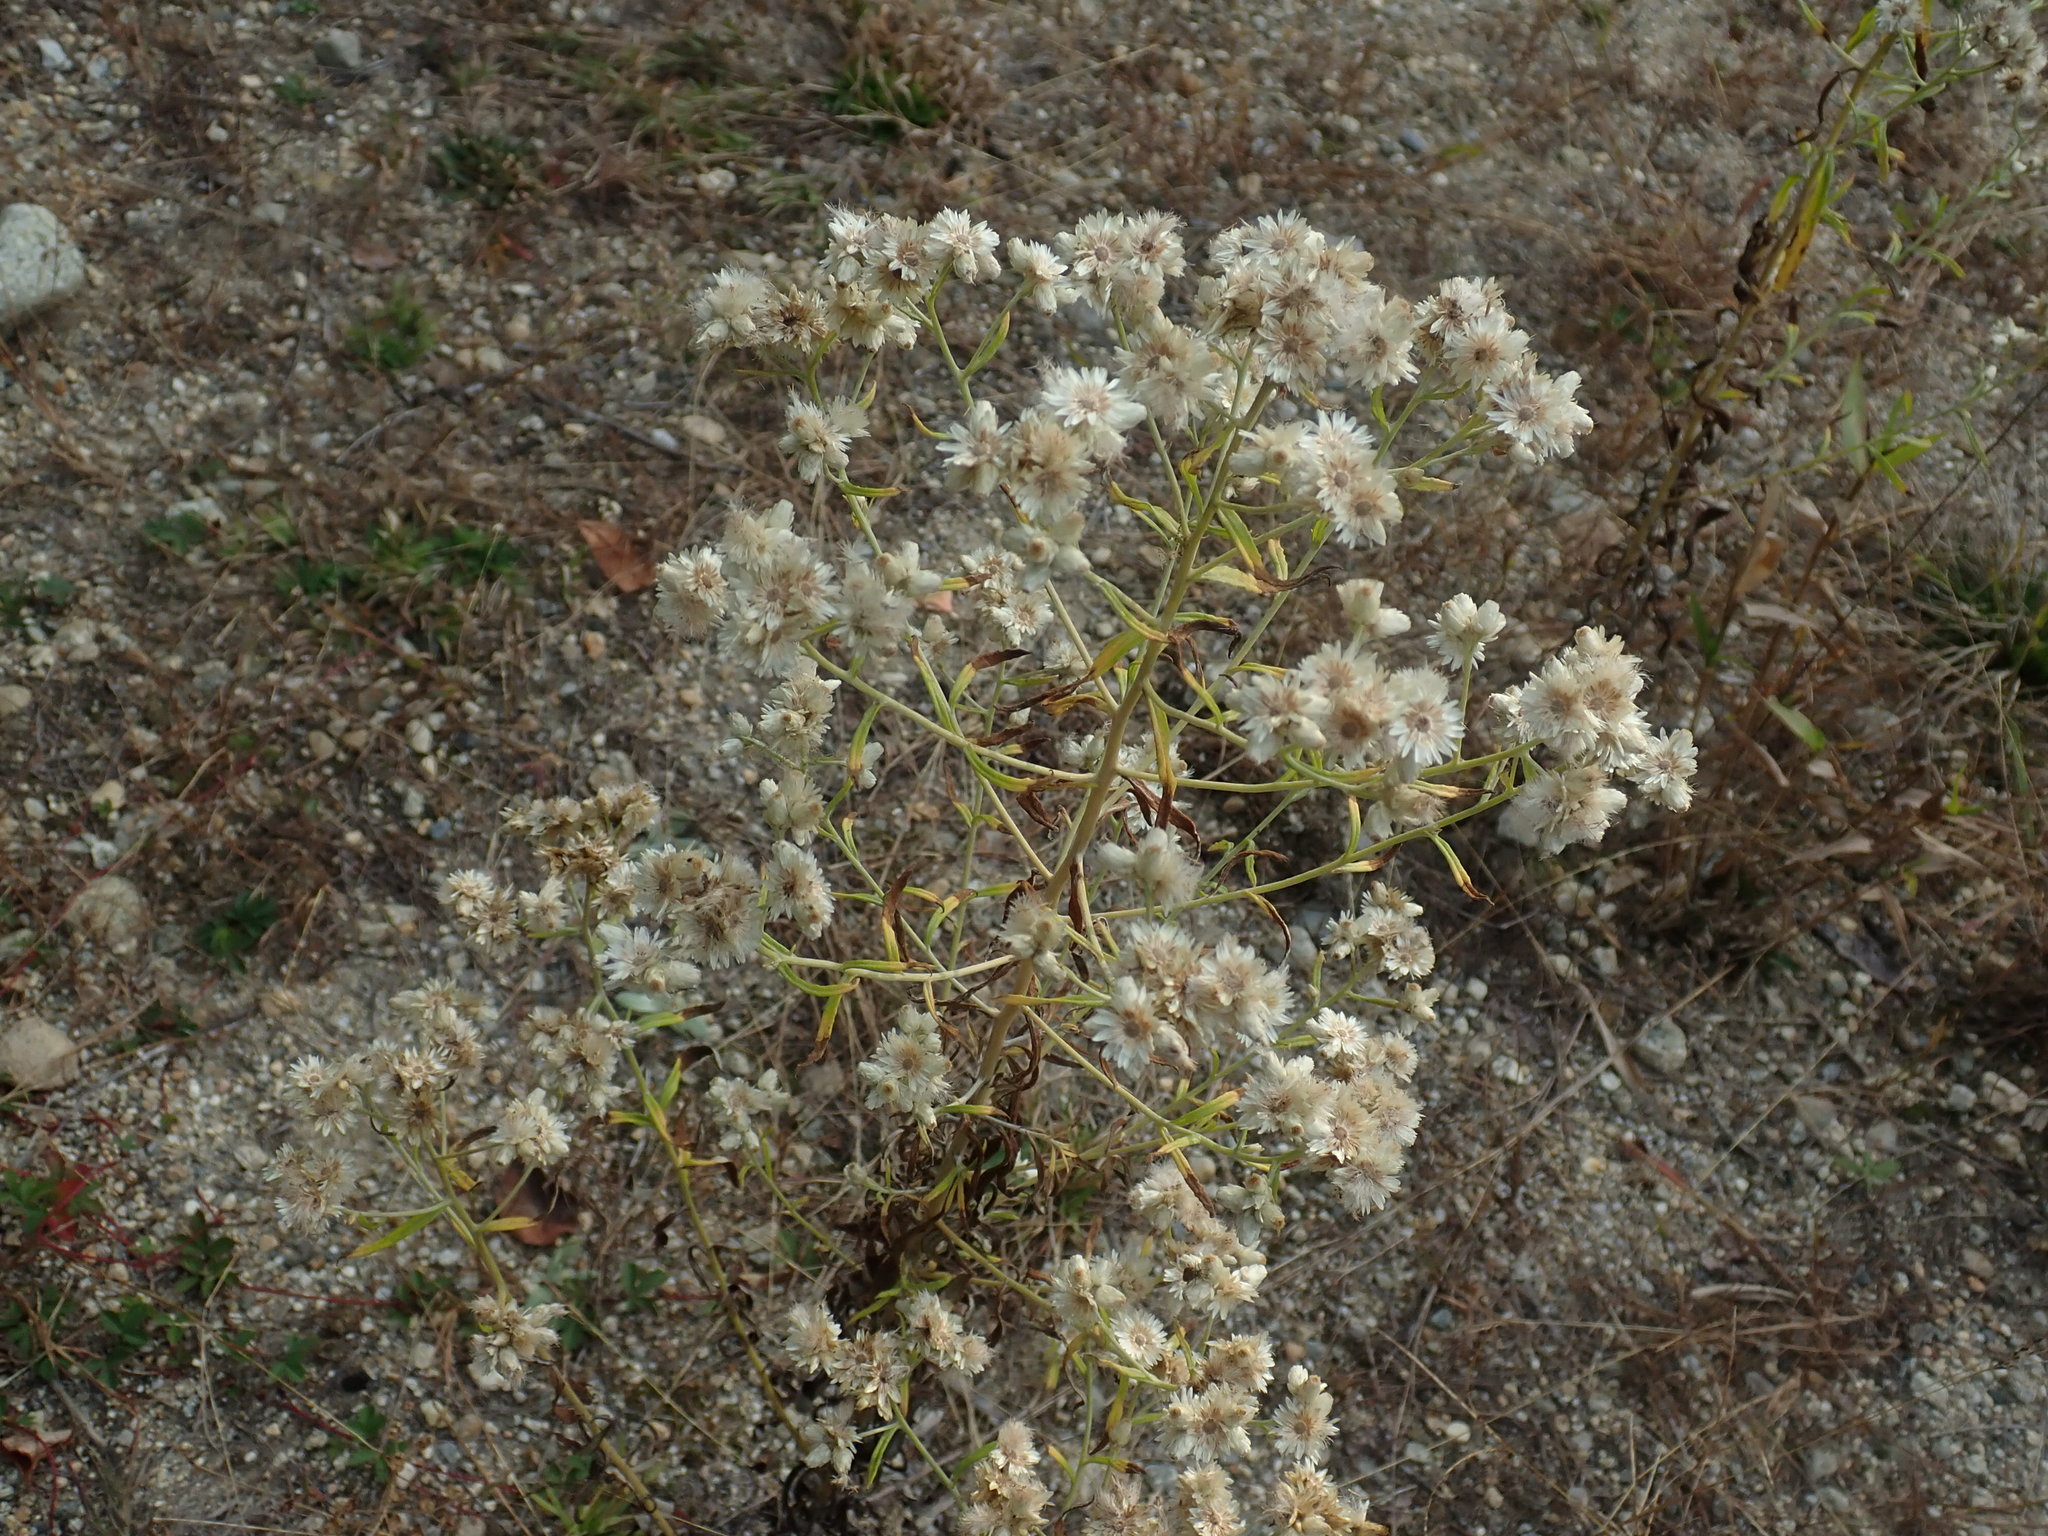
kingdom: Plantae
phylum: Tracheophyta
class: Magnoliopsida
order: Asterales
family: Asteraceae
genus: Pseudognaphalium
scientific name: Pseudognaphalium obtusifolium
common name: Eastern rabbit-tobacco
